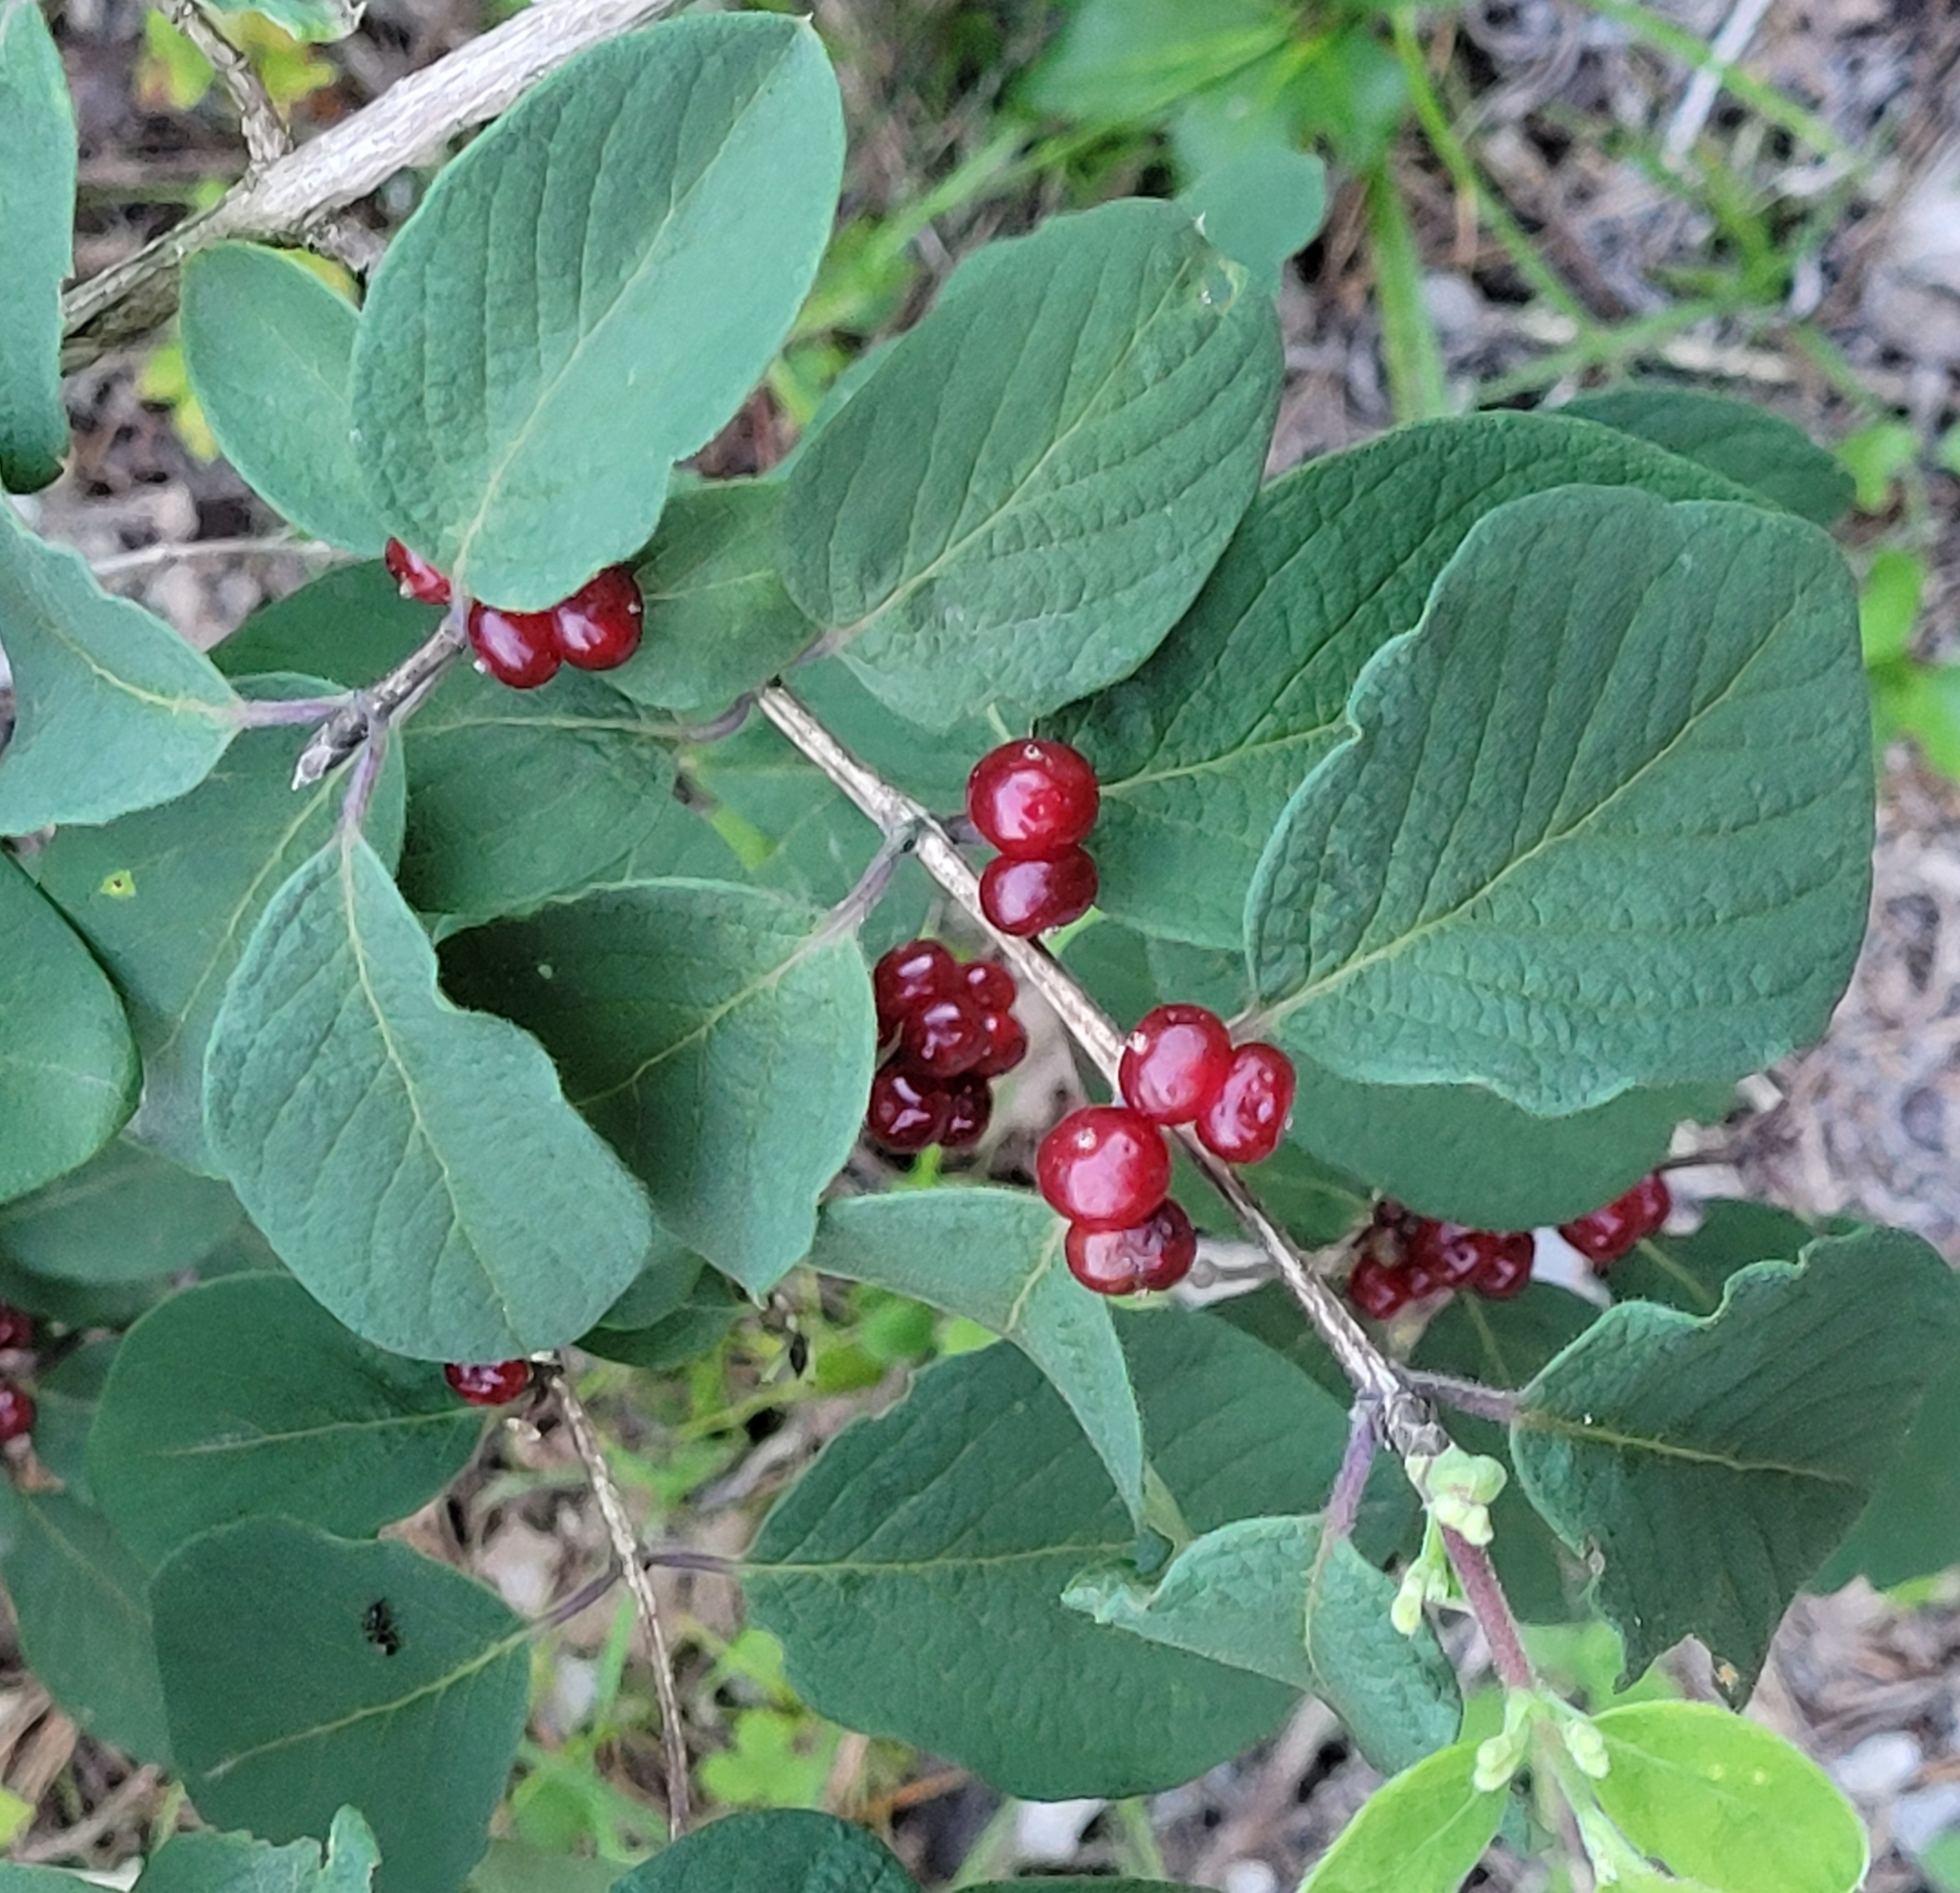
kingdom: Plantae
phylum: Tracheophyta
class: Magnoliopsida
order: Dipsacales
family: Caprifoliaceae
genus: Lonicera
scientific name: Lonicera xylosteum
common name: Fly honeysuckle
